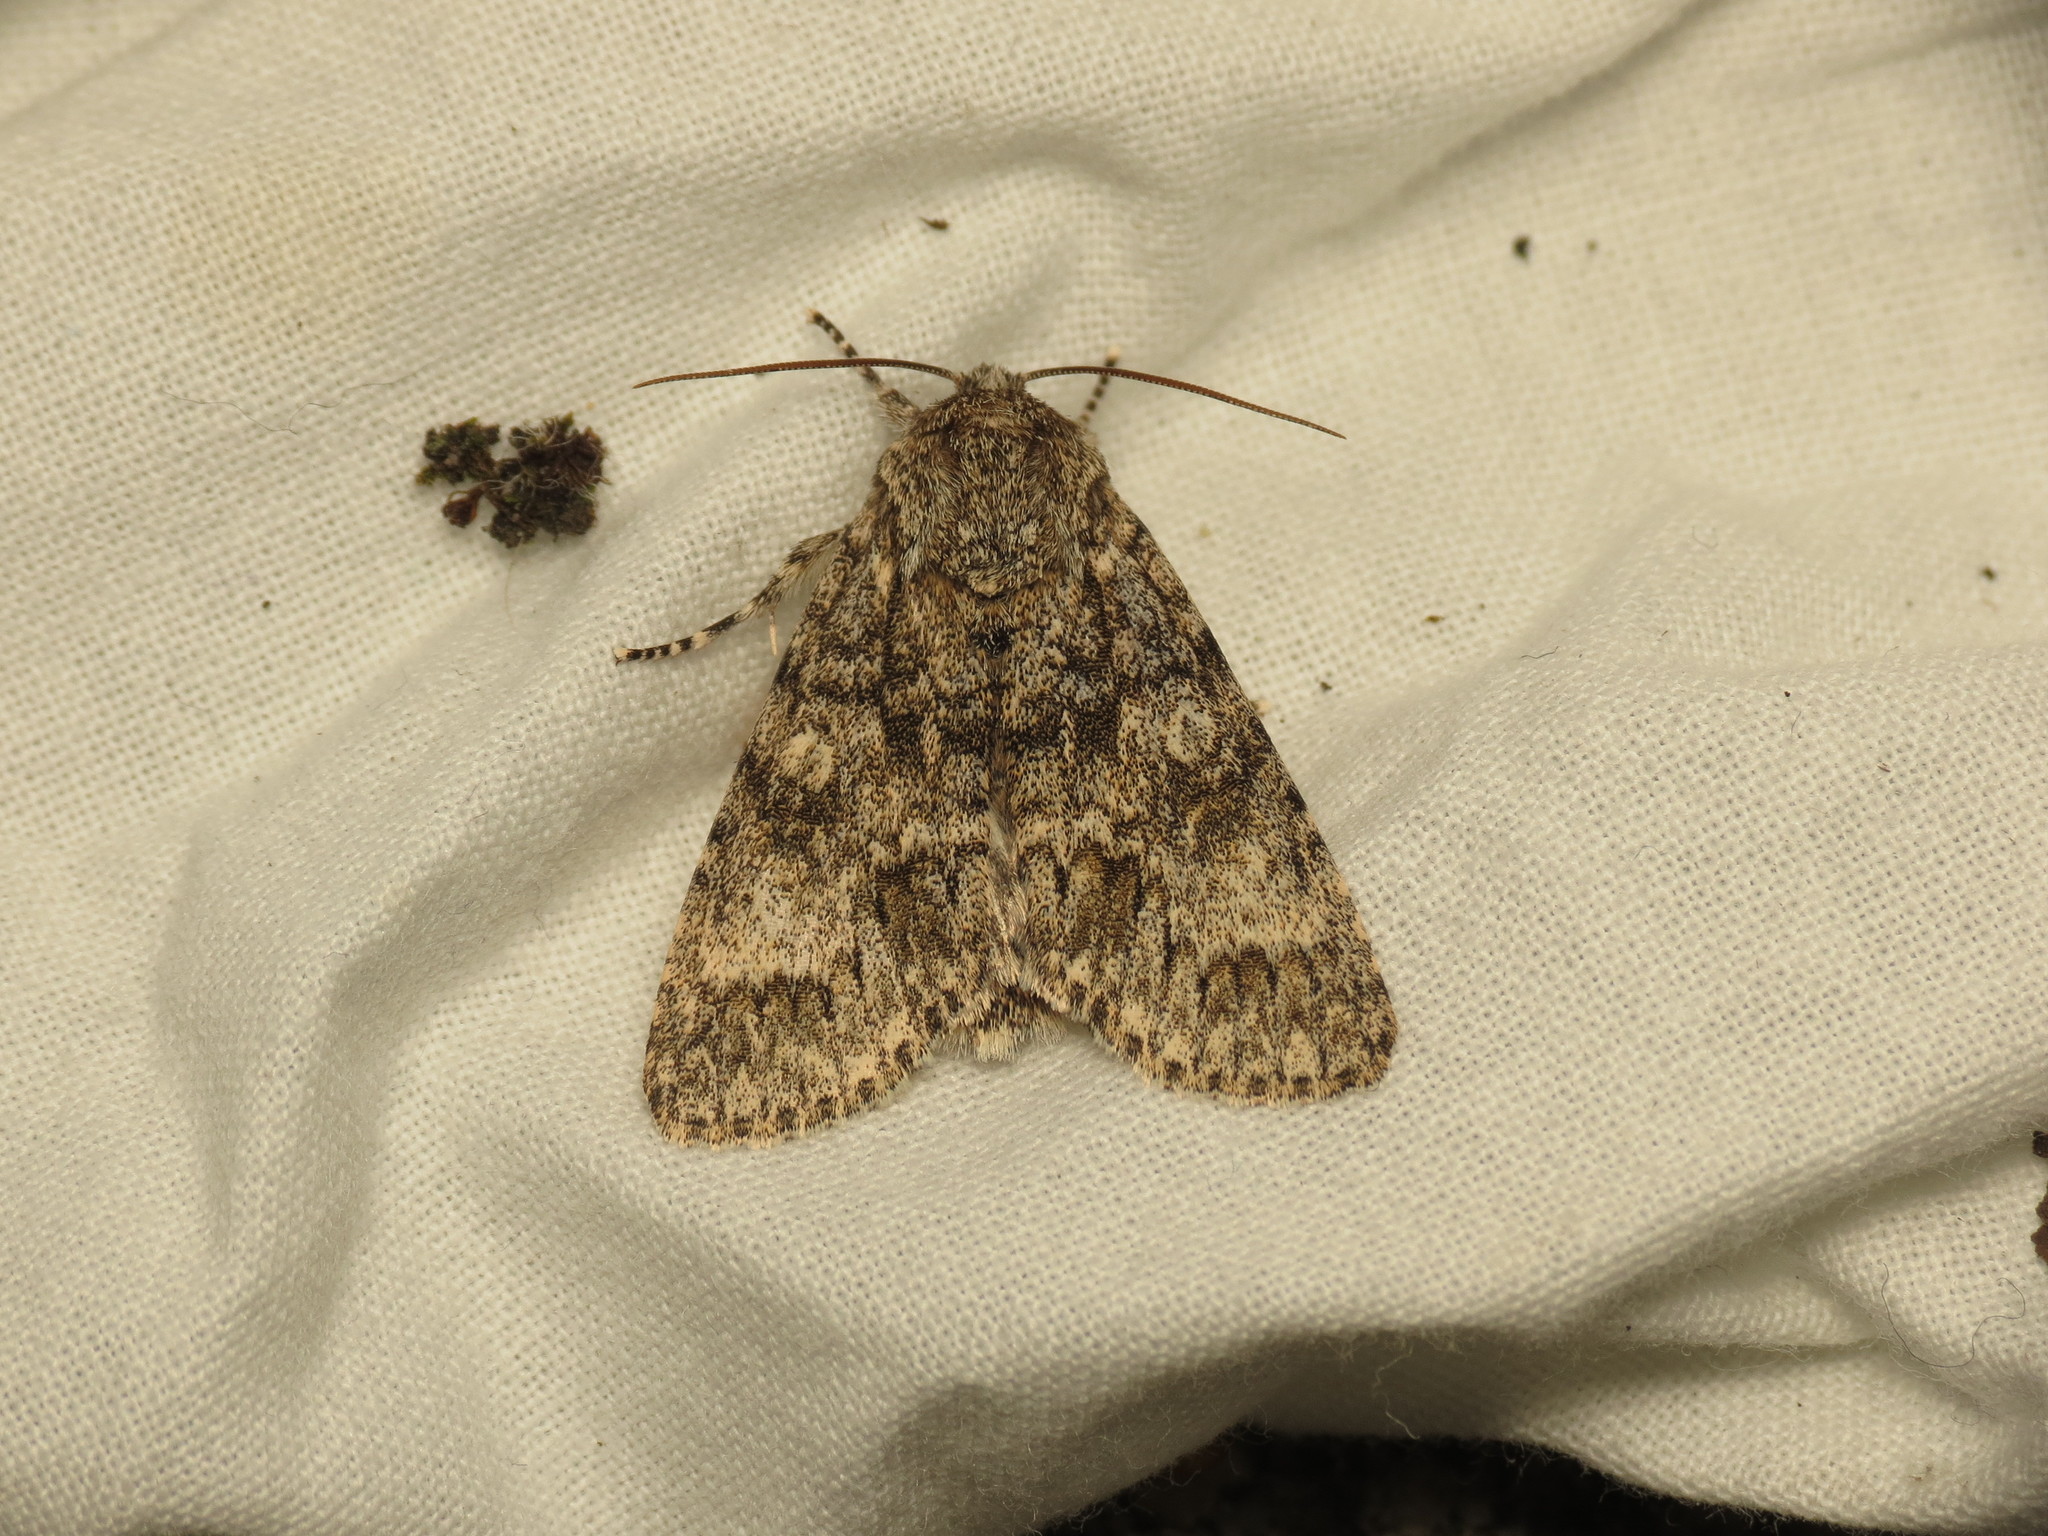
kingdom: Animalia
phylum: Arthropoda
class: Insecta
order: Lepidoptera
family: Noctuidae
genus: Acronicta
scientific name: Acronicta megacephala
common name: Poplar grey
